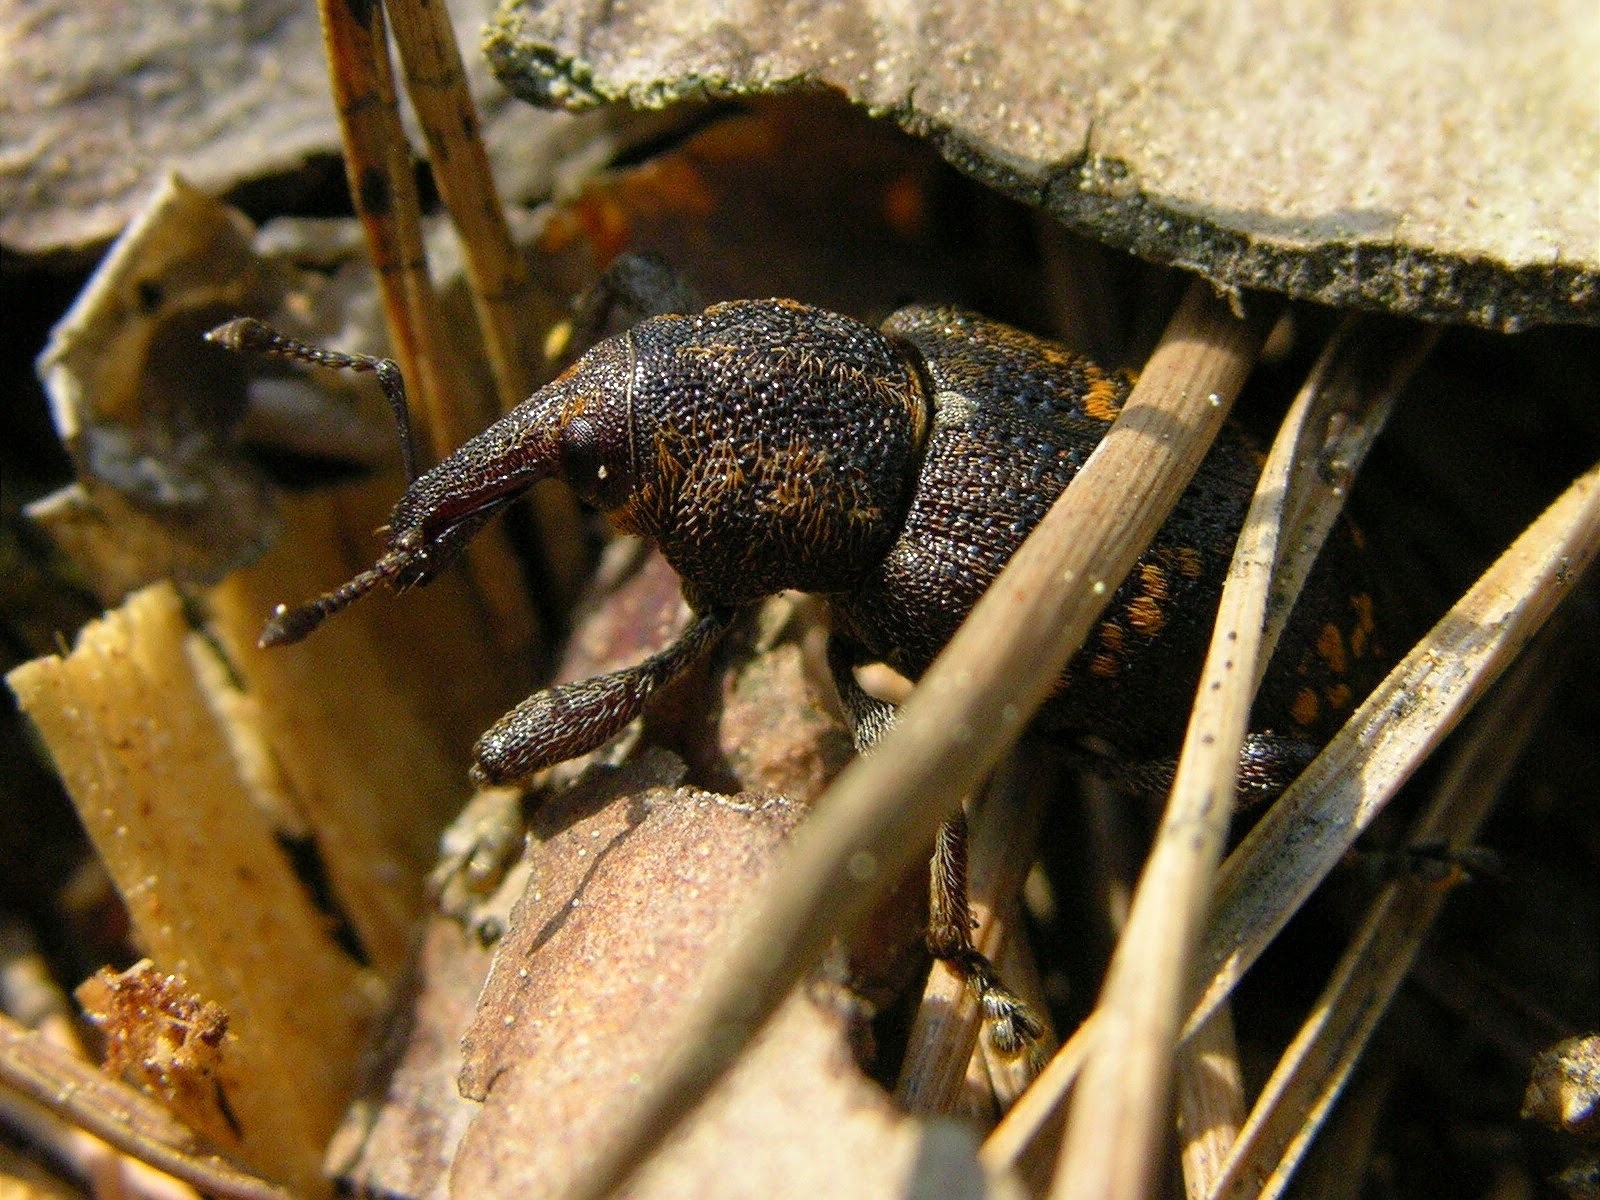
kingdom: Animalia
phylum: Arthropoda
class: Insecta
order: Coleoptera
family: Curculionidae
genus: Hylobius
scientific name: Hylobius abietis
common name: Large pine weevil
